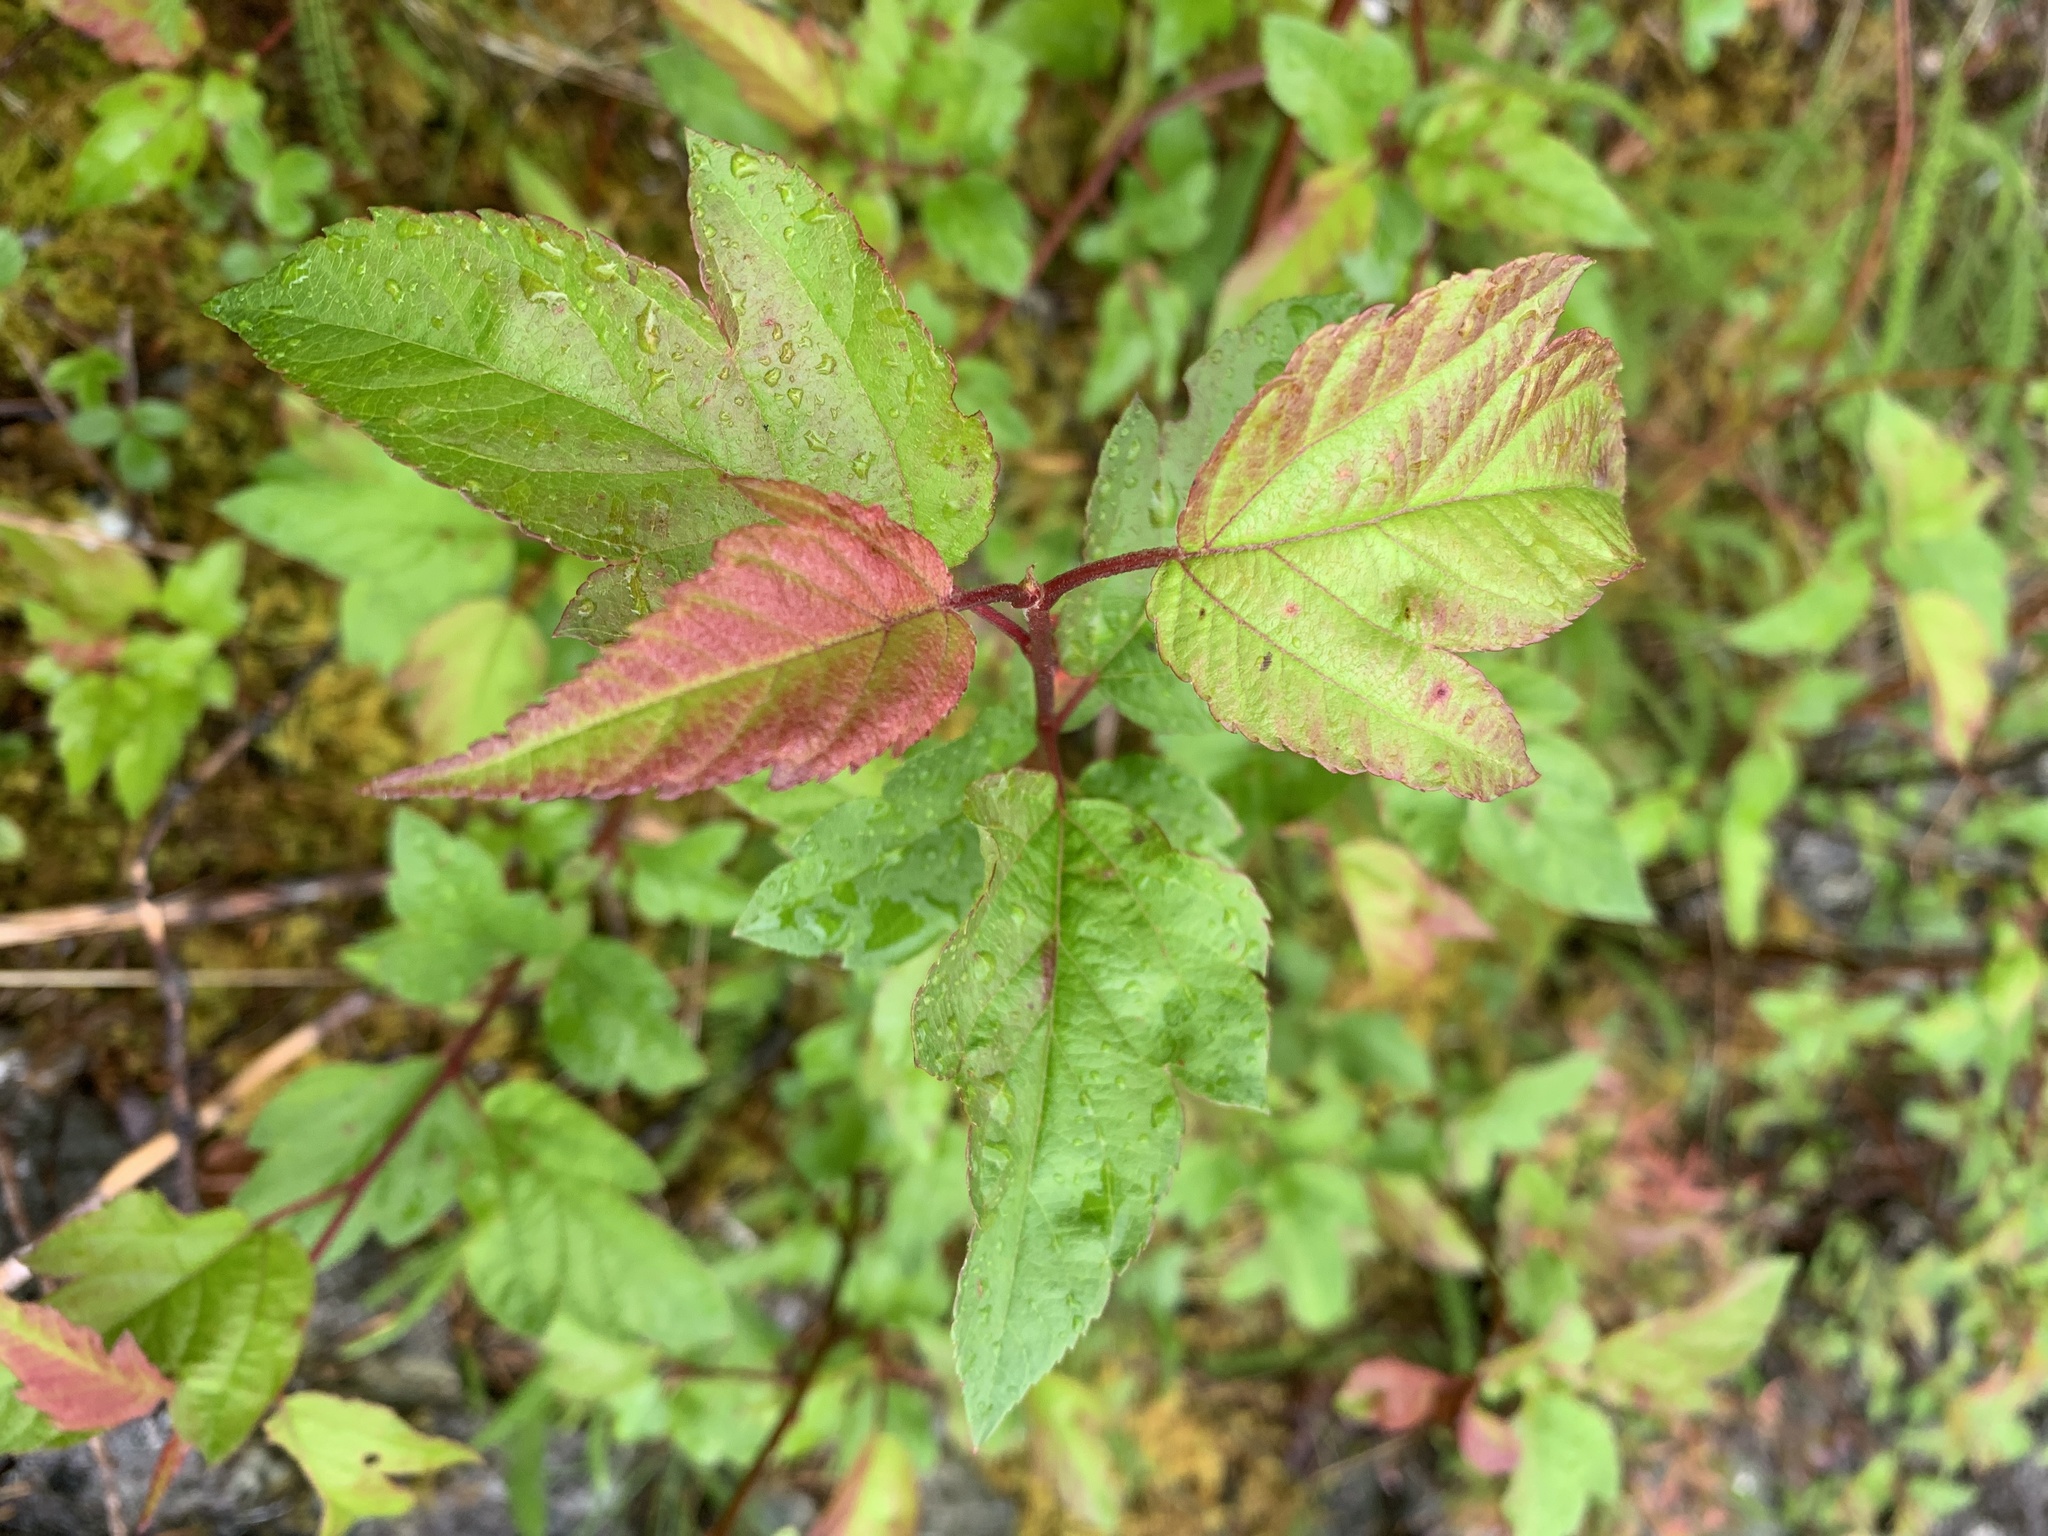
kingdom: Plantae
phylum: Tracheophyta
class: Magnoliopsida
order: Rosales
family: Rosaceae
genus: Malus
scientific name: Malus fusca
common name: Oregon crab apple
